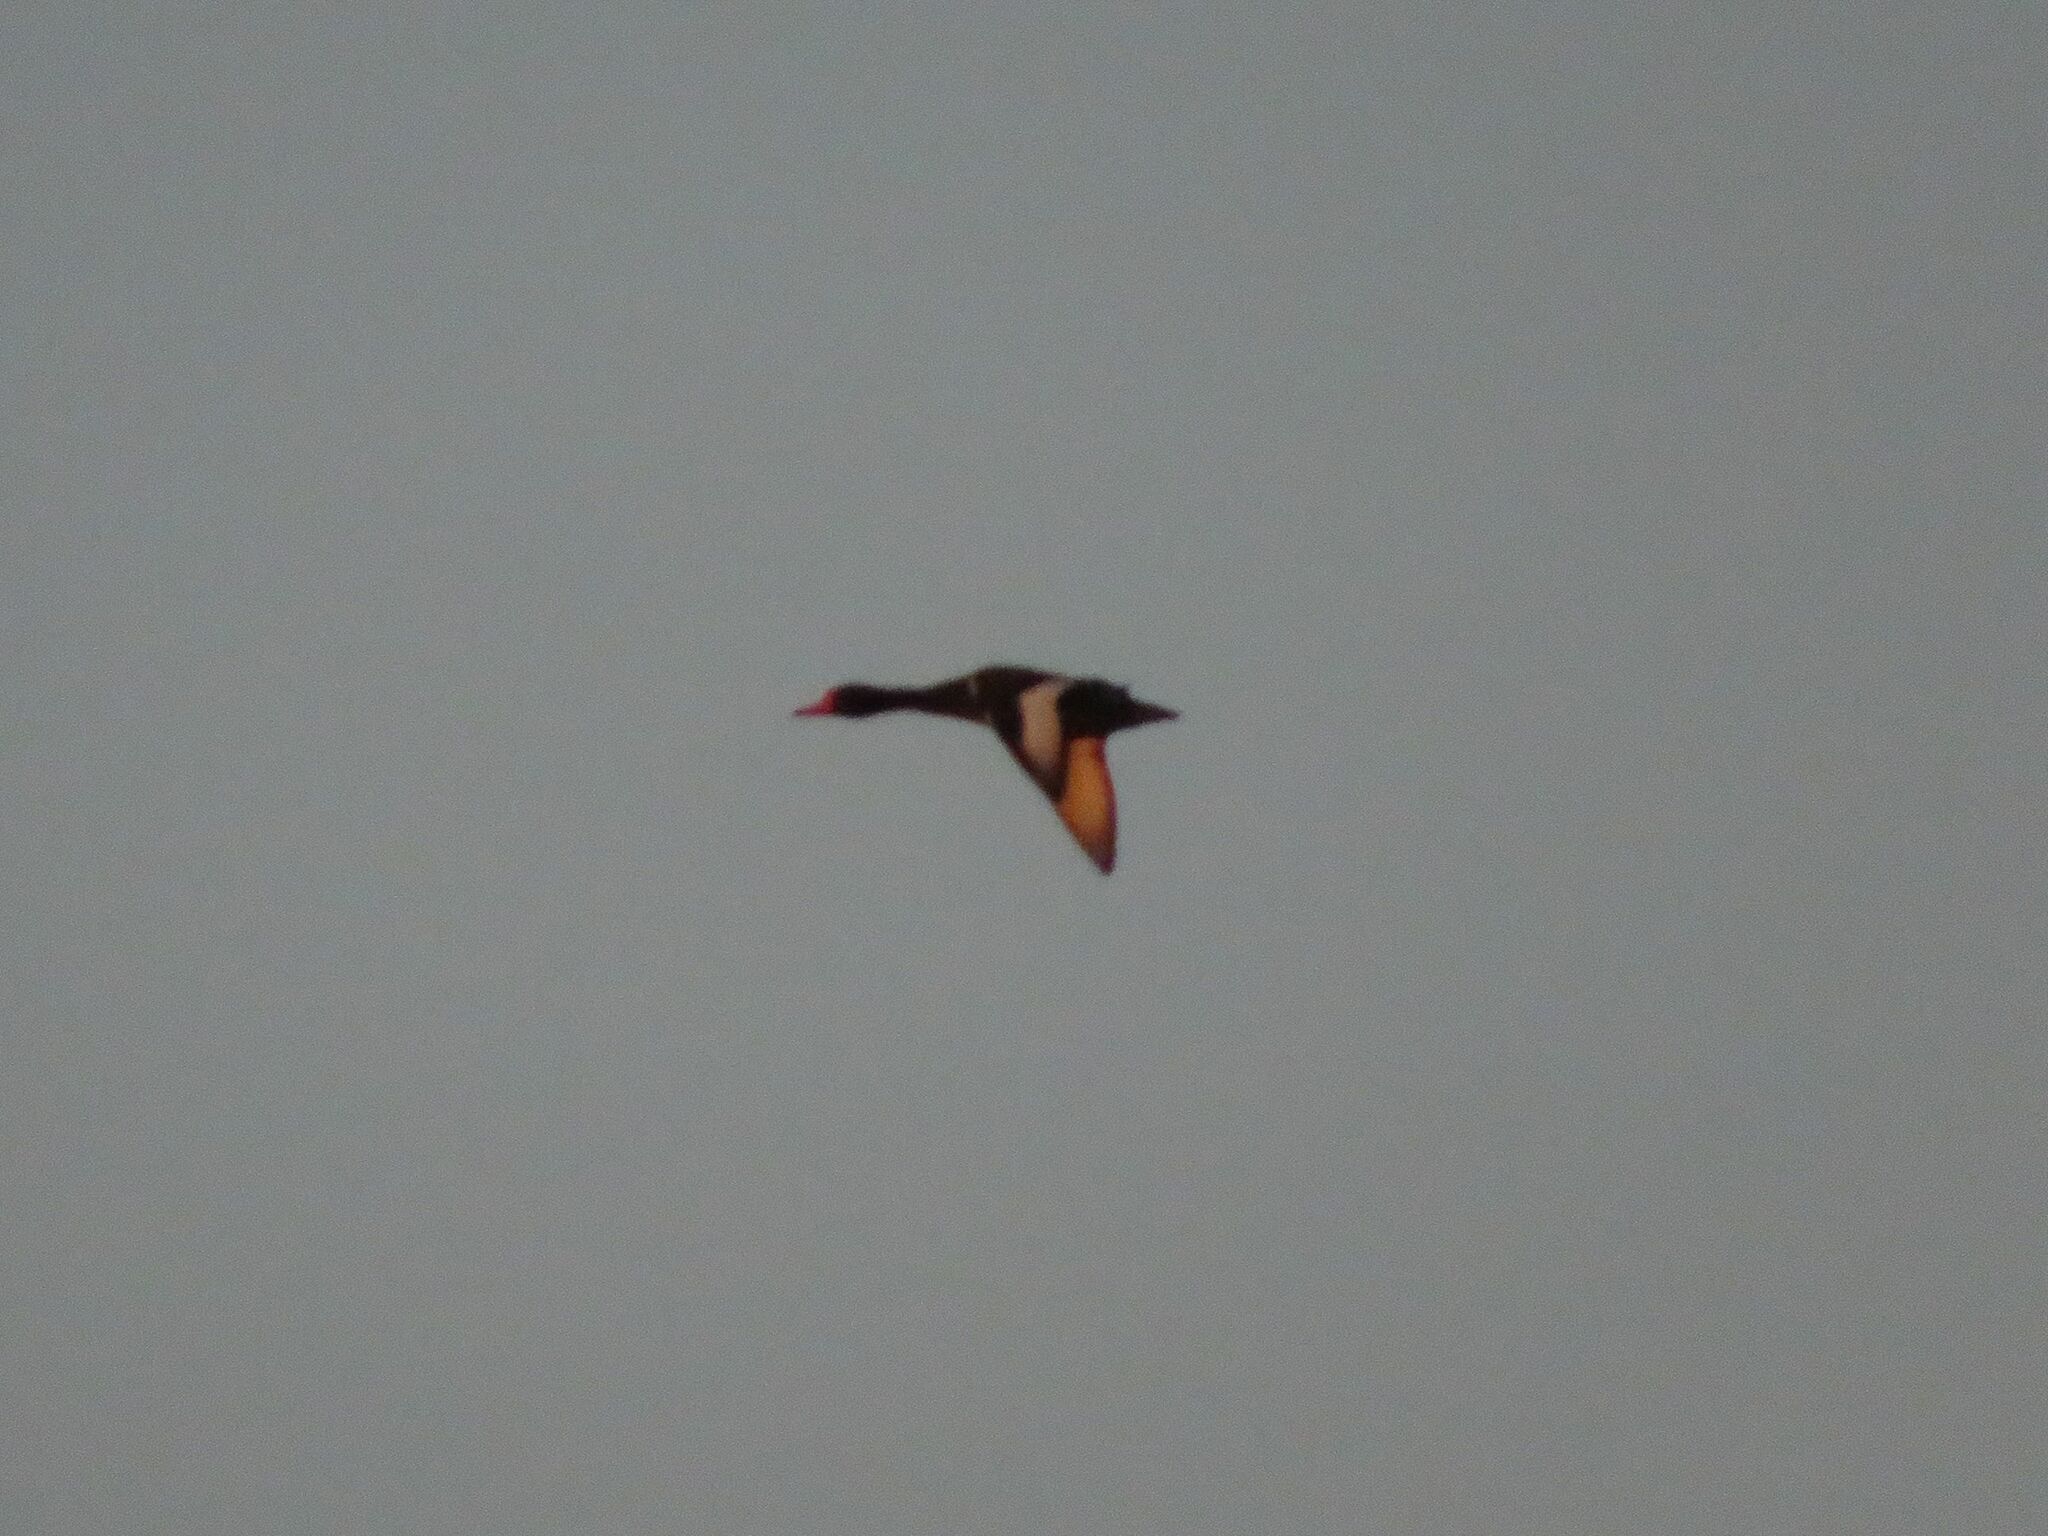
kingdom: Animalia
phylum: Chordata
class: Aves
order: Anseriformes
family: Anatidae
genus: Netta
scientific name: Netta peposaca
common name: Rosy-billed pochard
